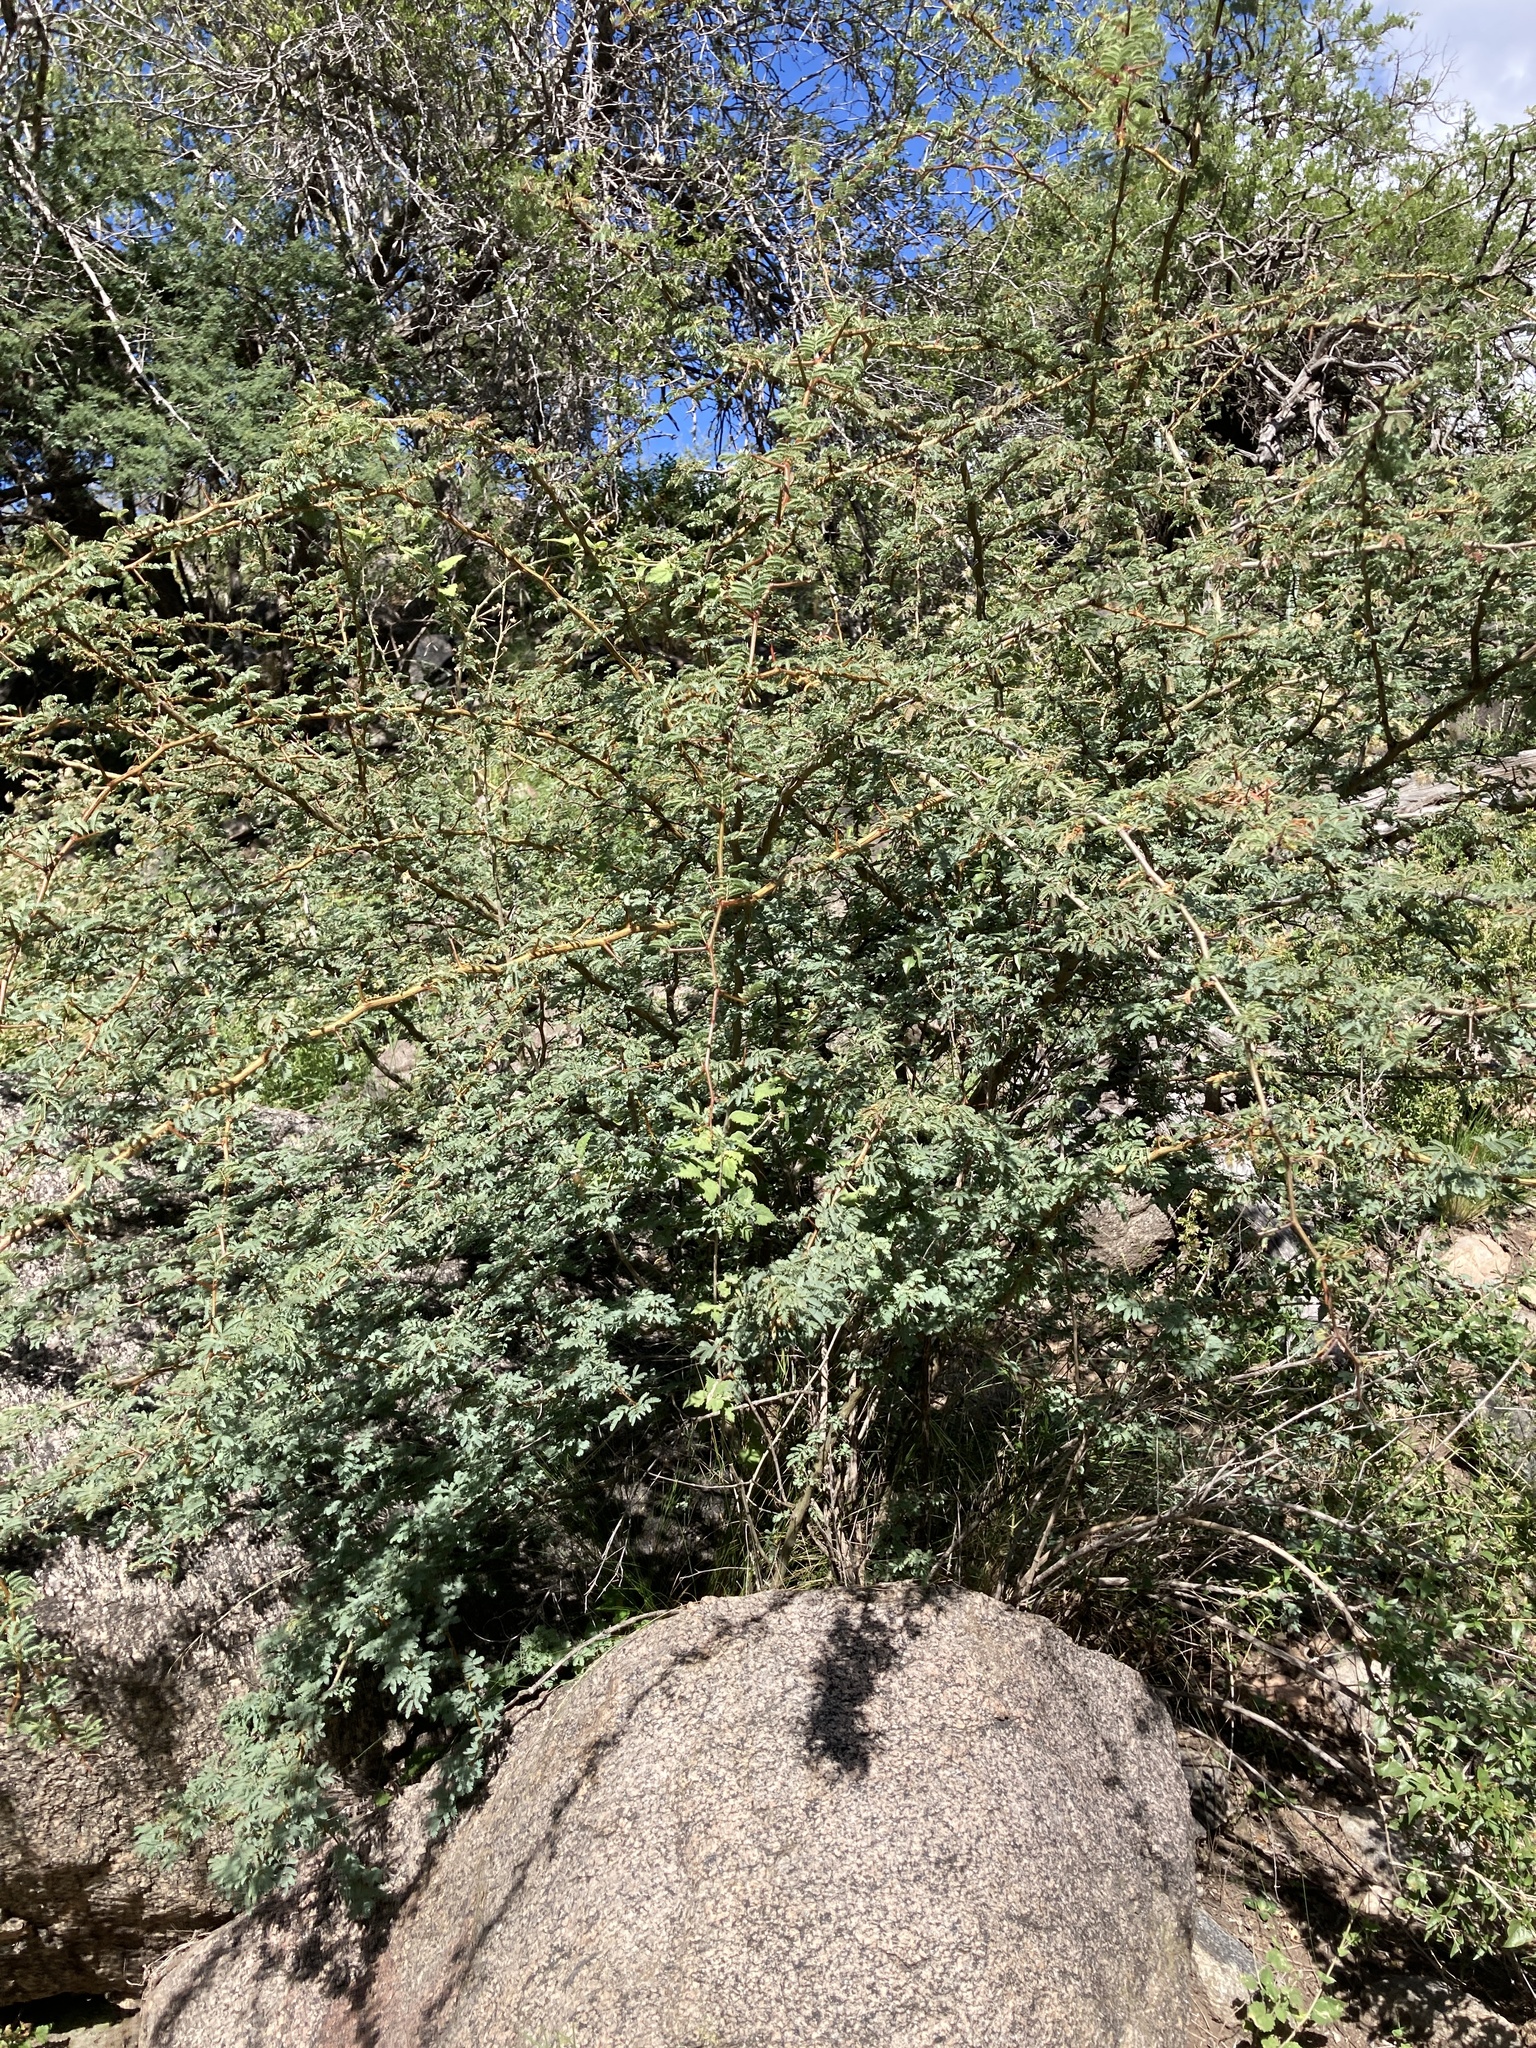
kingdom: Plantae
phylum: Tracheophyta
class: Magnoliopsida
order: Fabales
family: Fabaceae
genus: Senegalia
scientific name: Senegalia gilliesii
